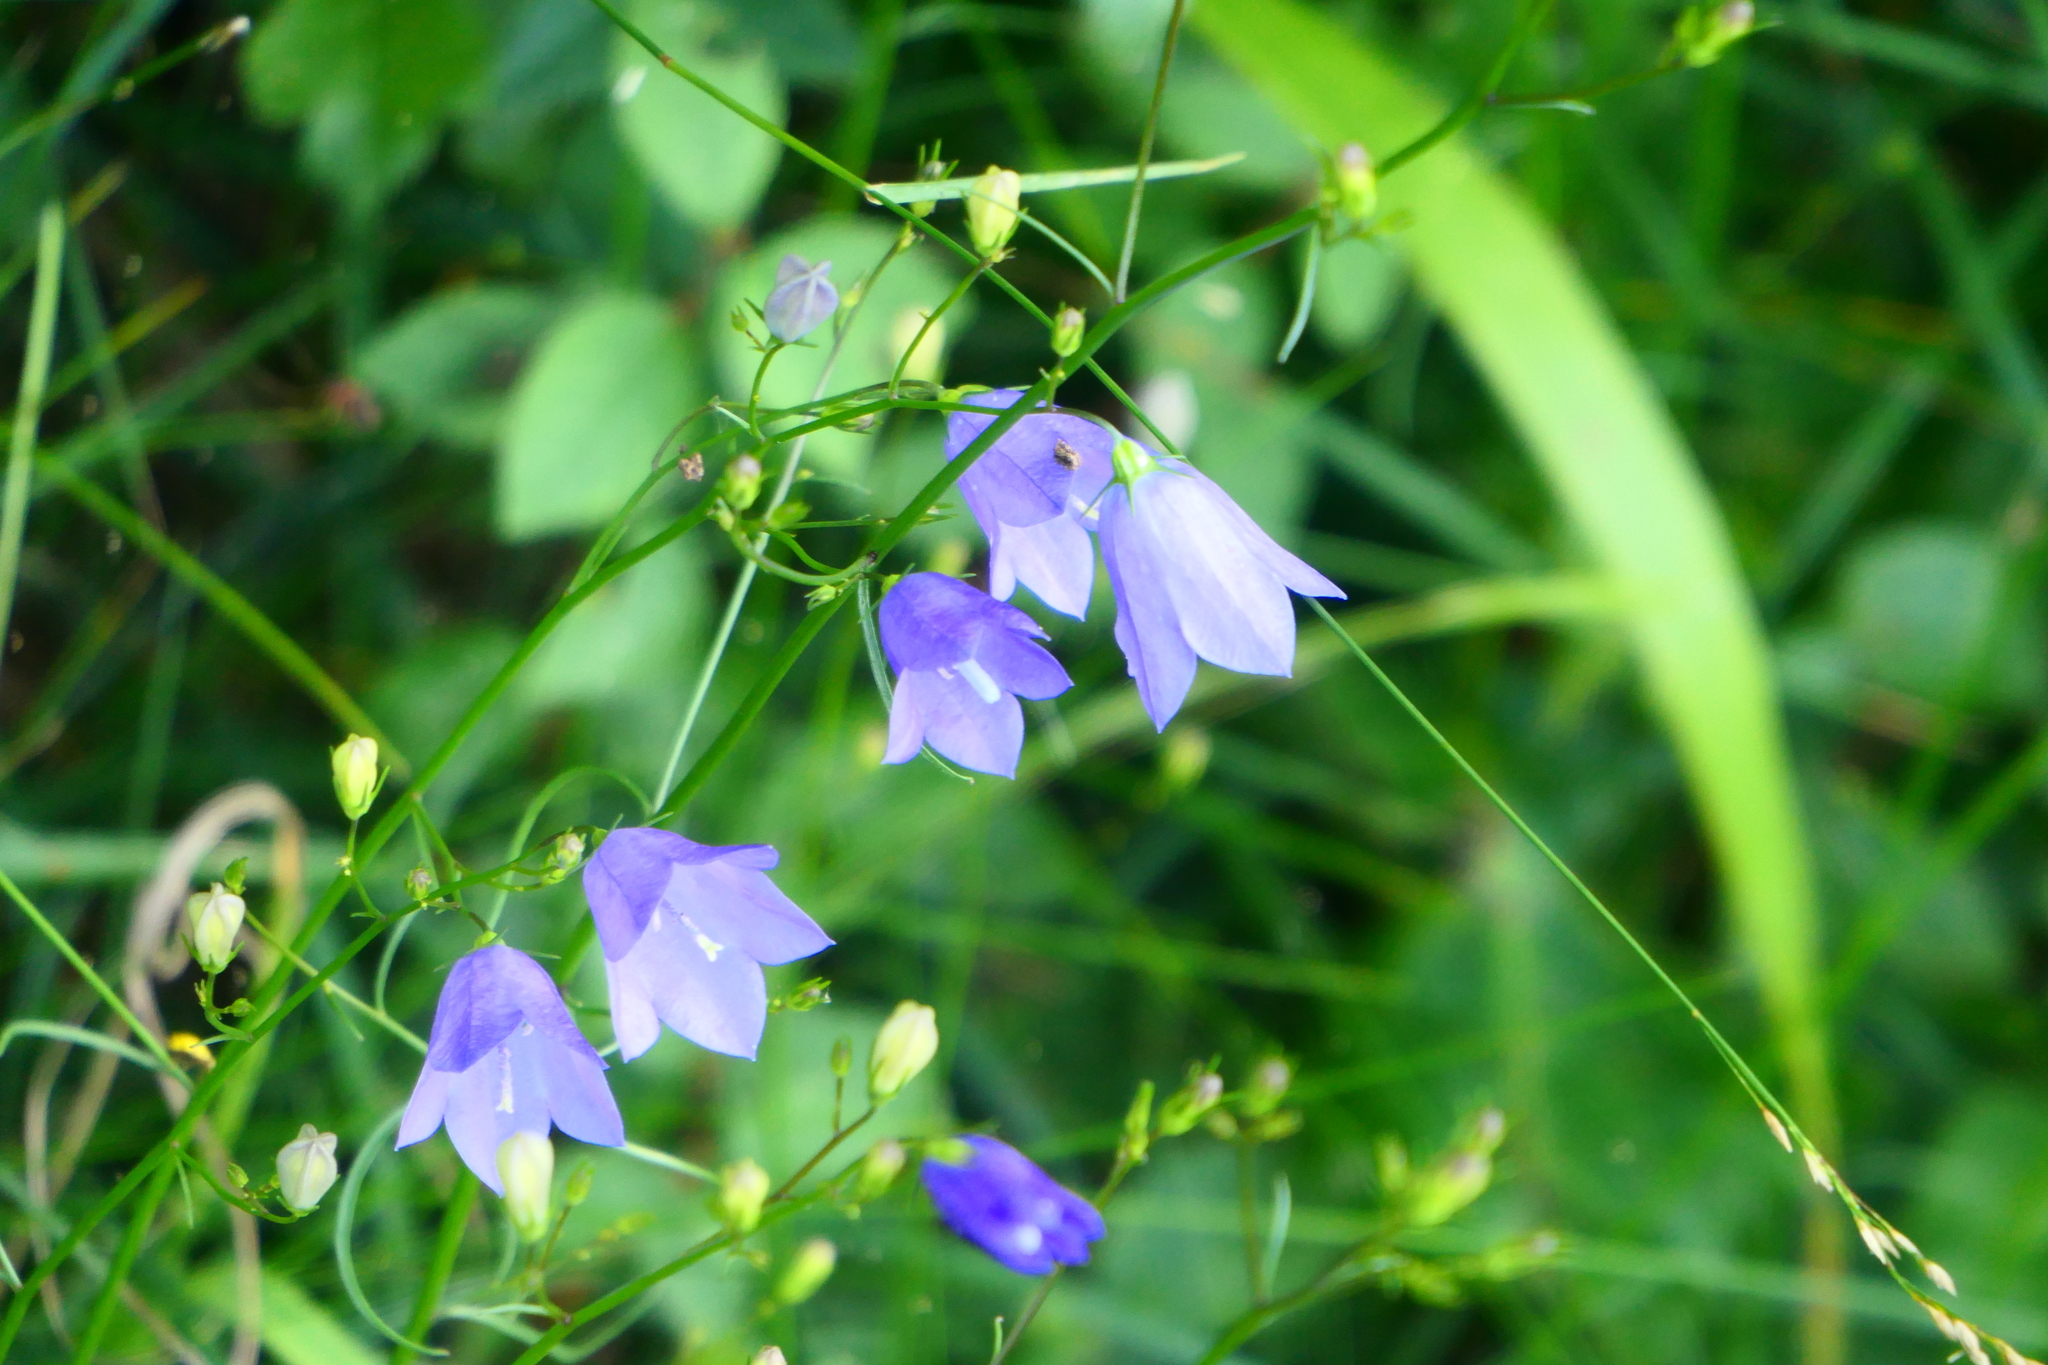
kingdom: Plantae
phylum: Tracheophyta
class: Magnoliopsida
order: Asterales
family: Campanulaceae
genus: Campanula
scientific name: Campanula rotundifolia
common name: Harebell
